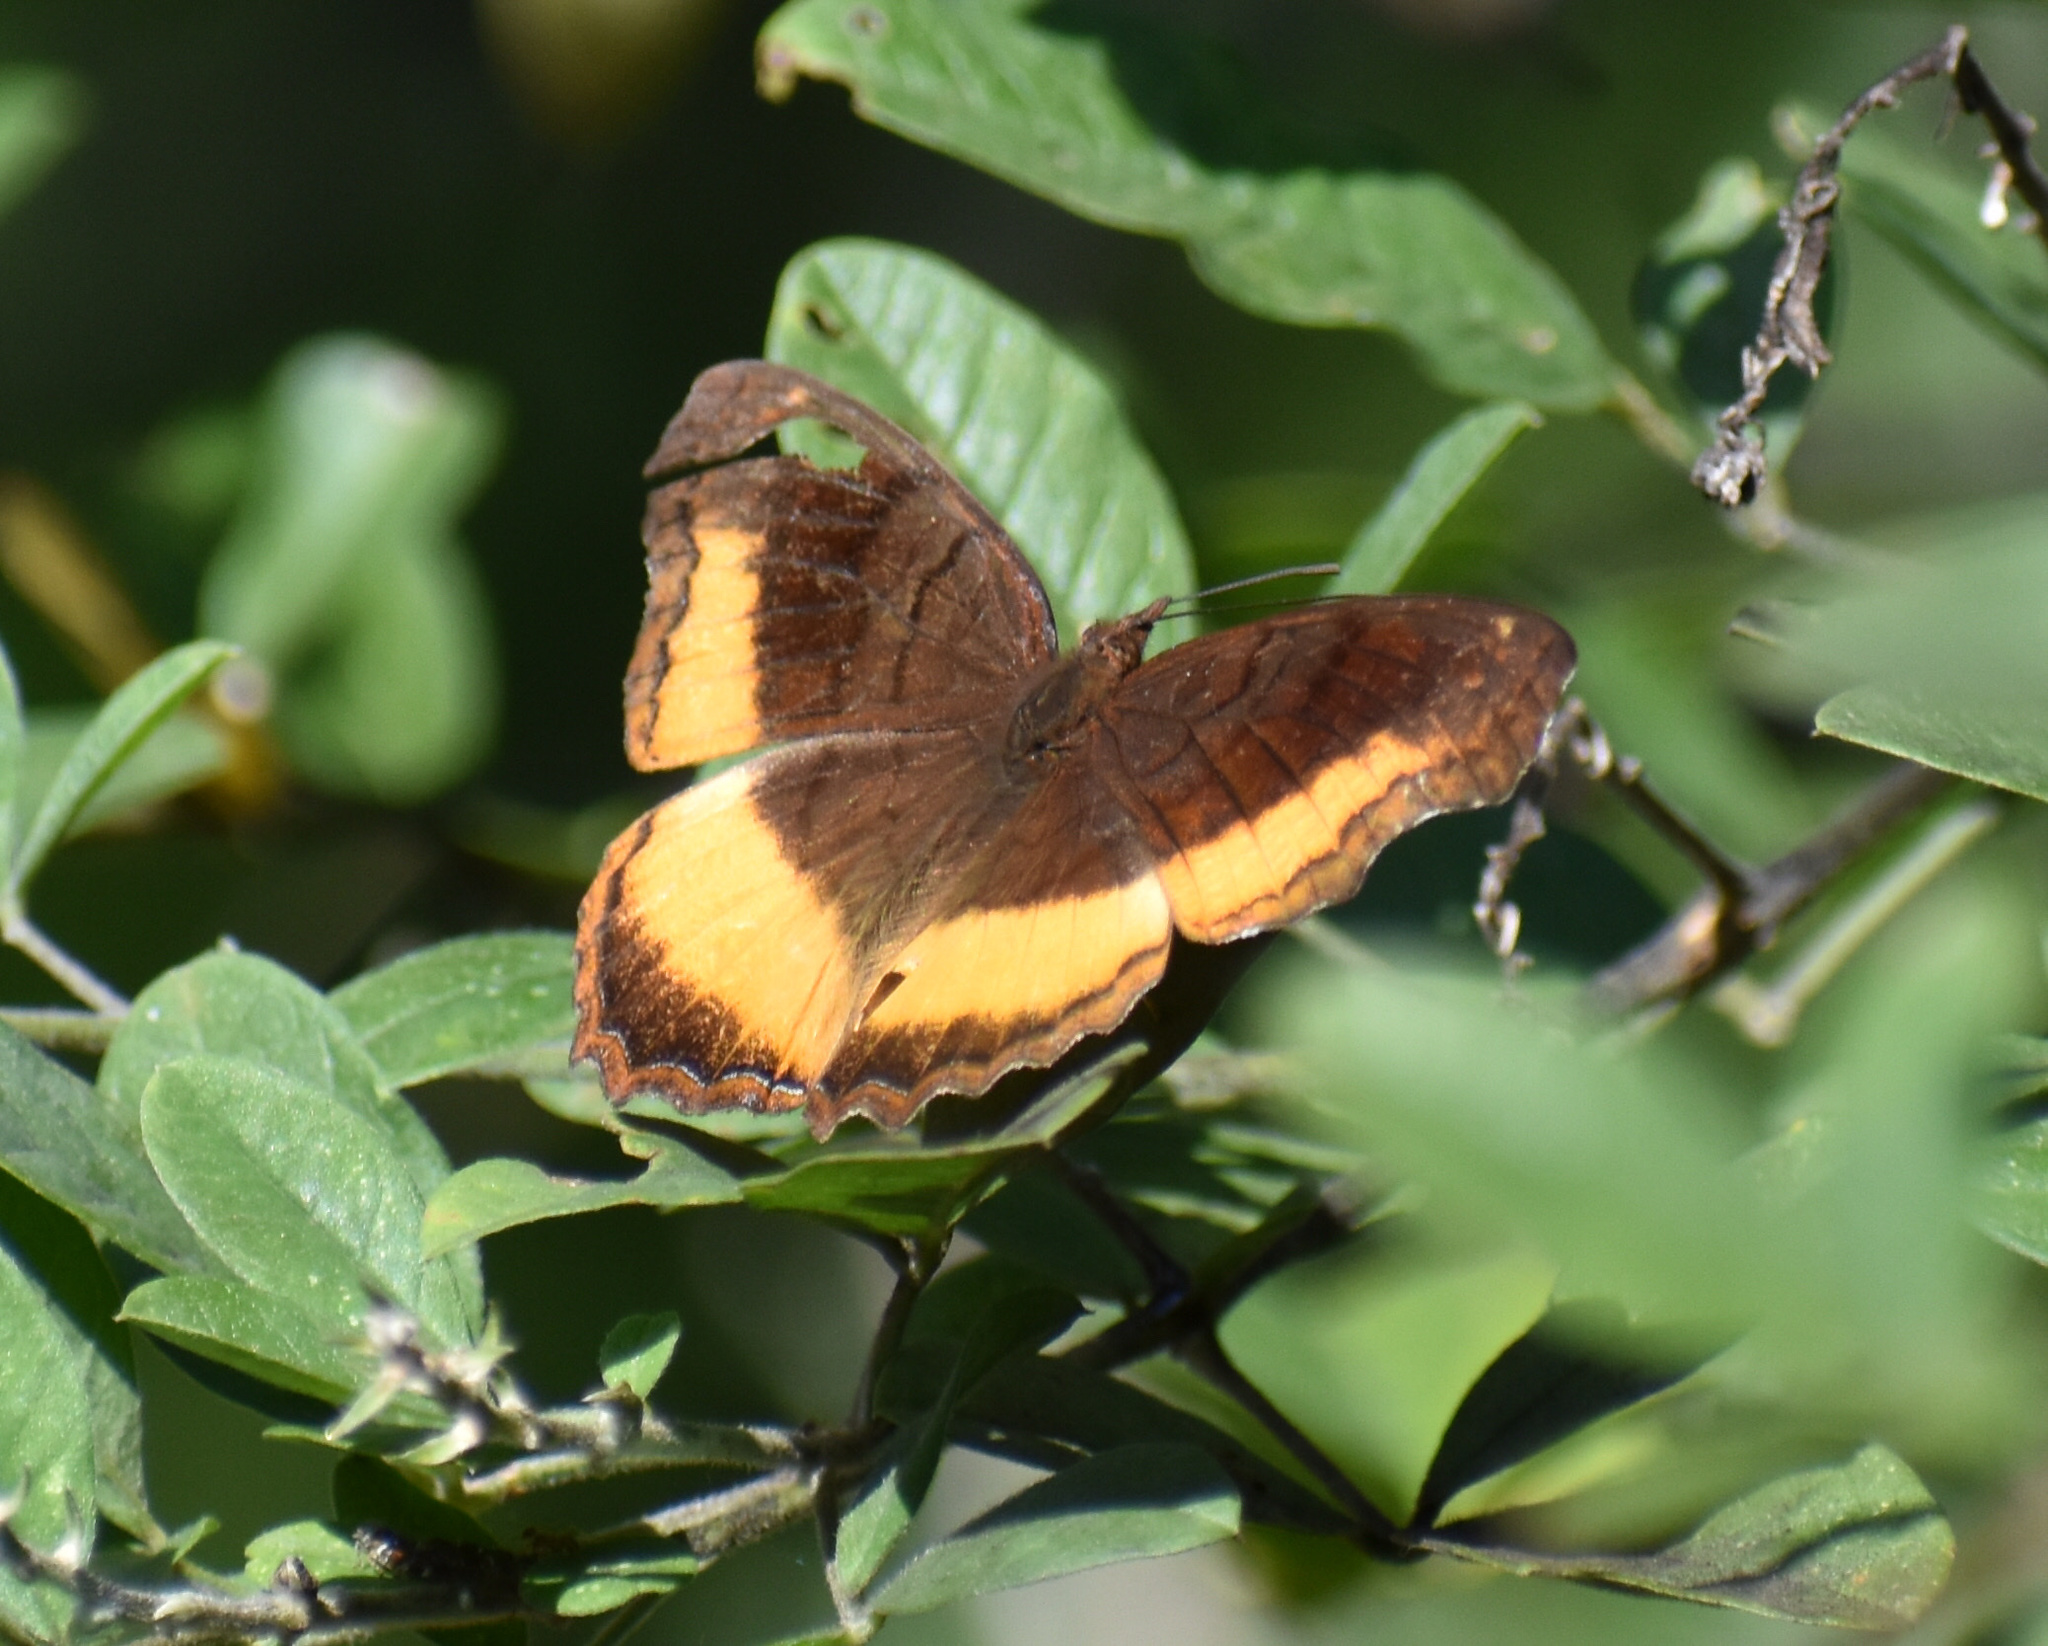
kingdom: Animalia
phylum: Arthropoda
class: Insecta
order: Lepidoptera
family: Nymphalidae
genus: Eurytela
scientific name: Eurytela dryope
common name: Golden piper
